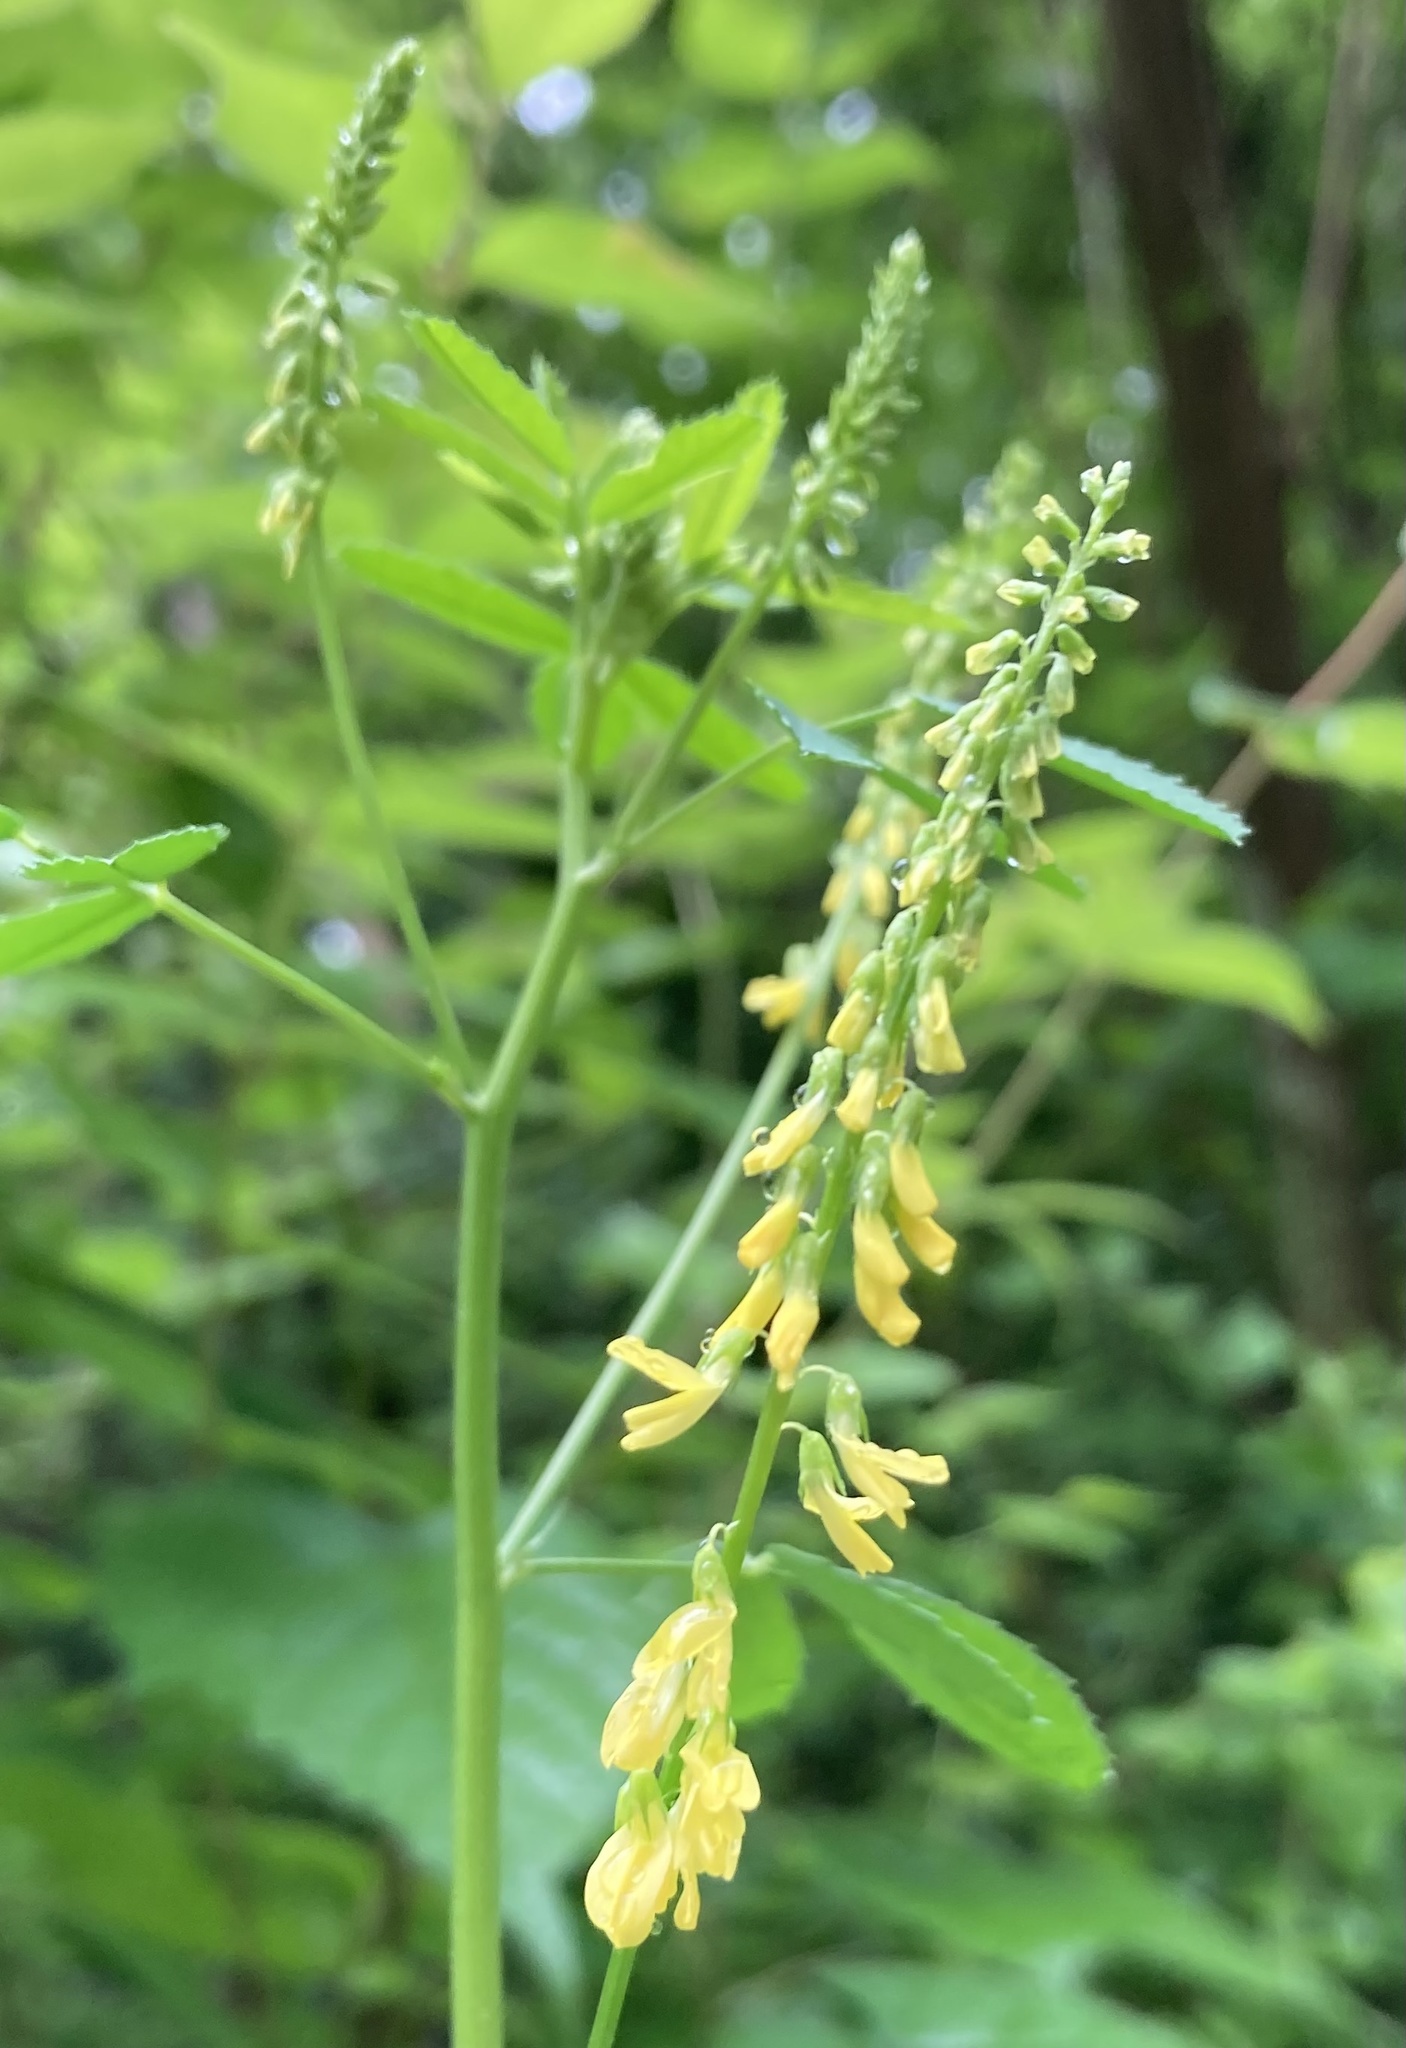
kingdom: Plantae
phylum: Tracheophyta
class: Magnoliopsida
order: Fabales
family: Fabaceae
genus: Melilotus
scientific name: Melilotus officinalis
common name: Sweetclover
